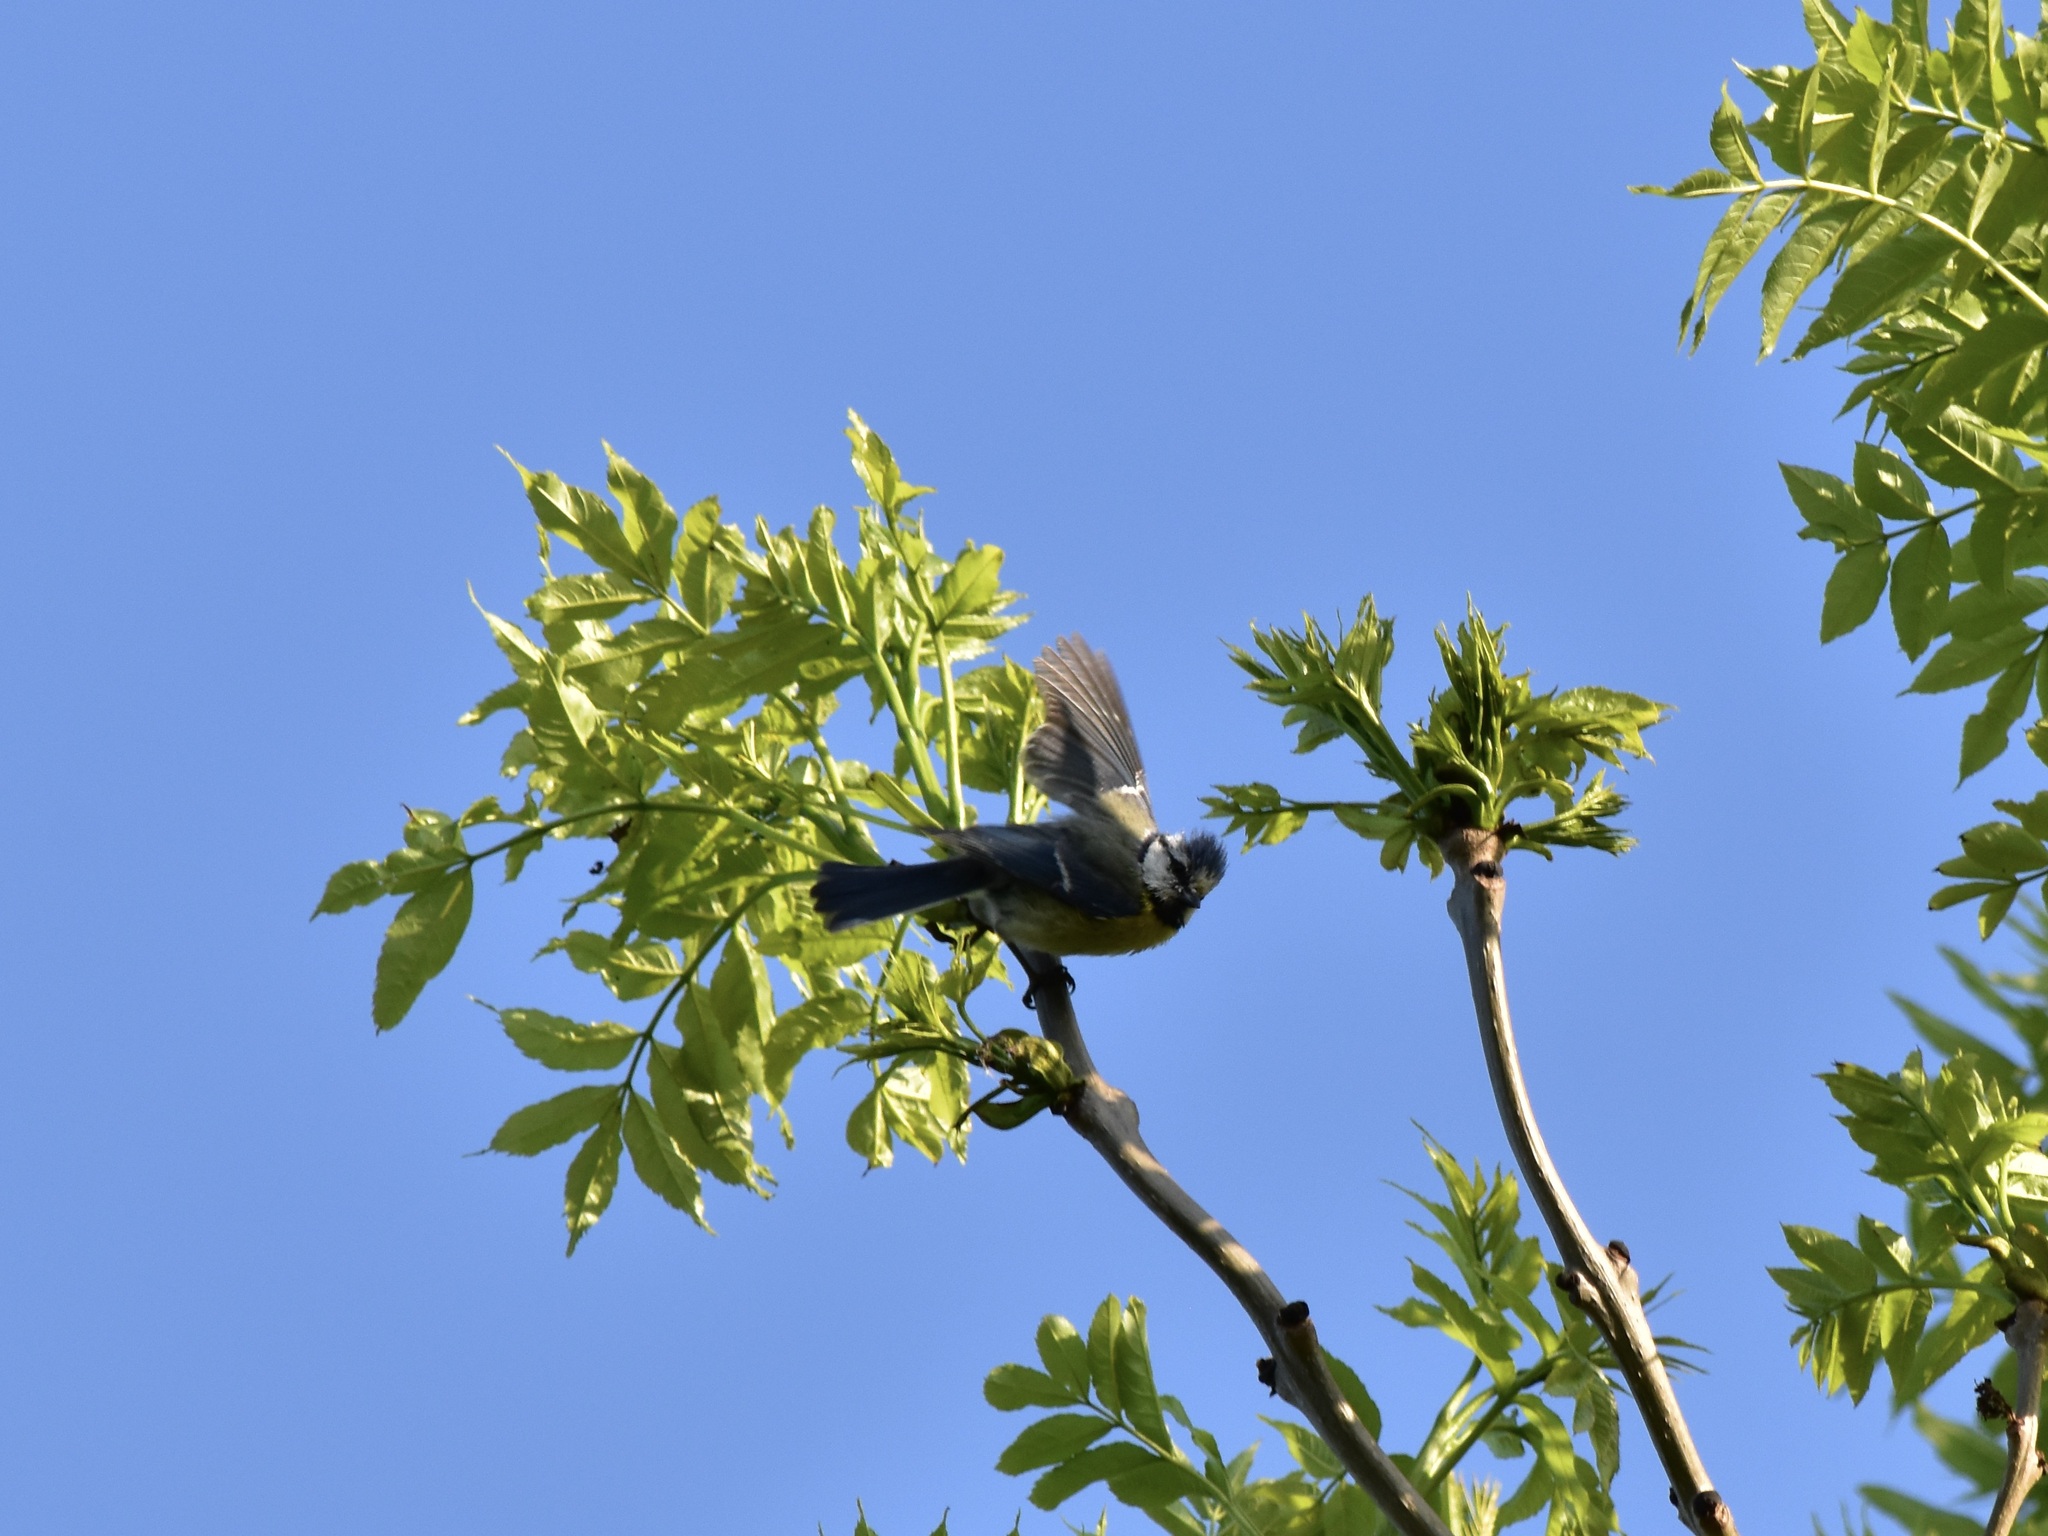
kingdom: Animalia
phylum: Chordata
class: Aves
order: Passeriformes
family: Paridae
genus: Cyanistes
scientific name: Cyanistes caeruleus
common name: Eurasian blue tit
